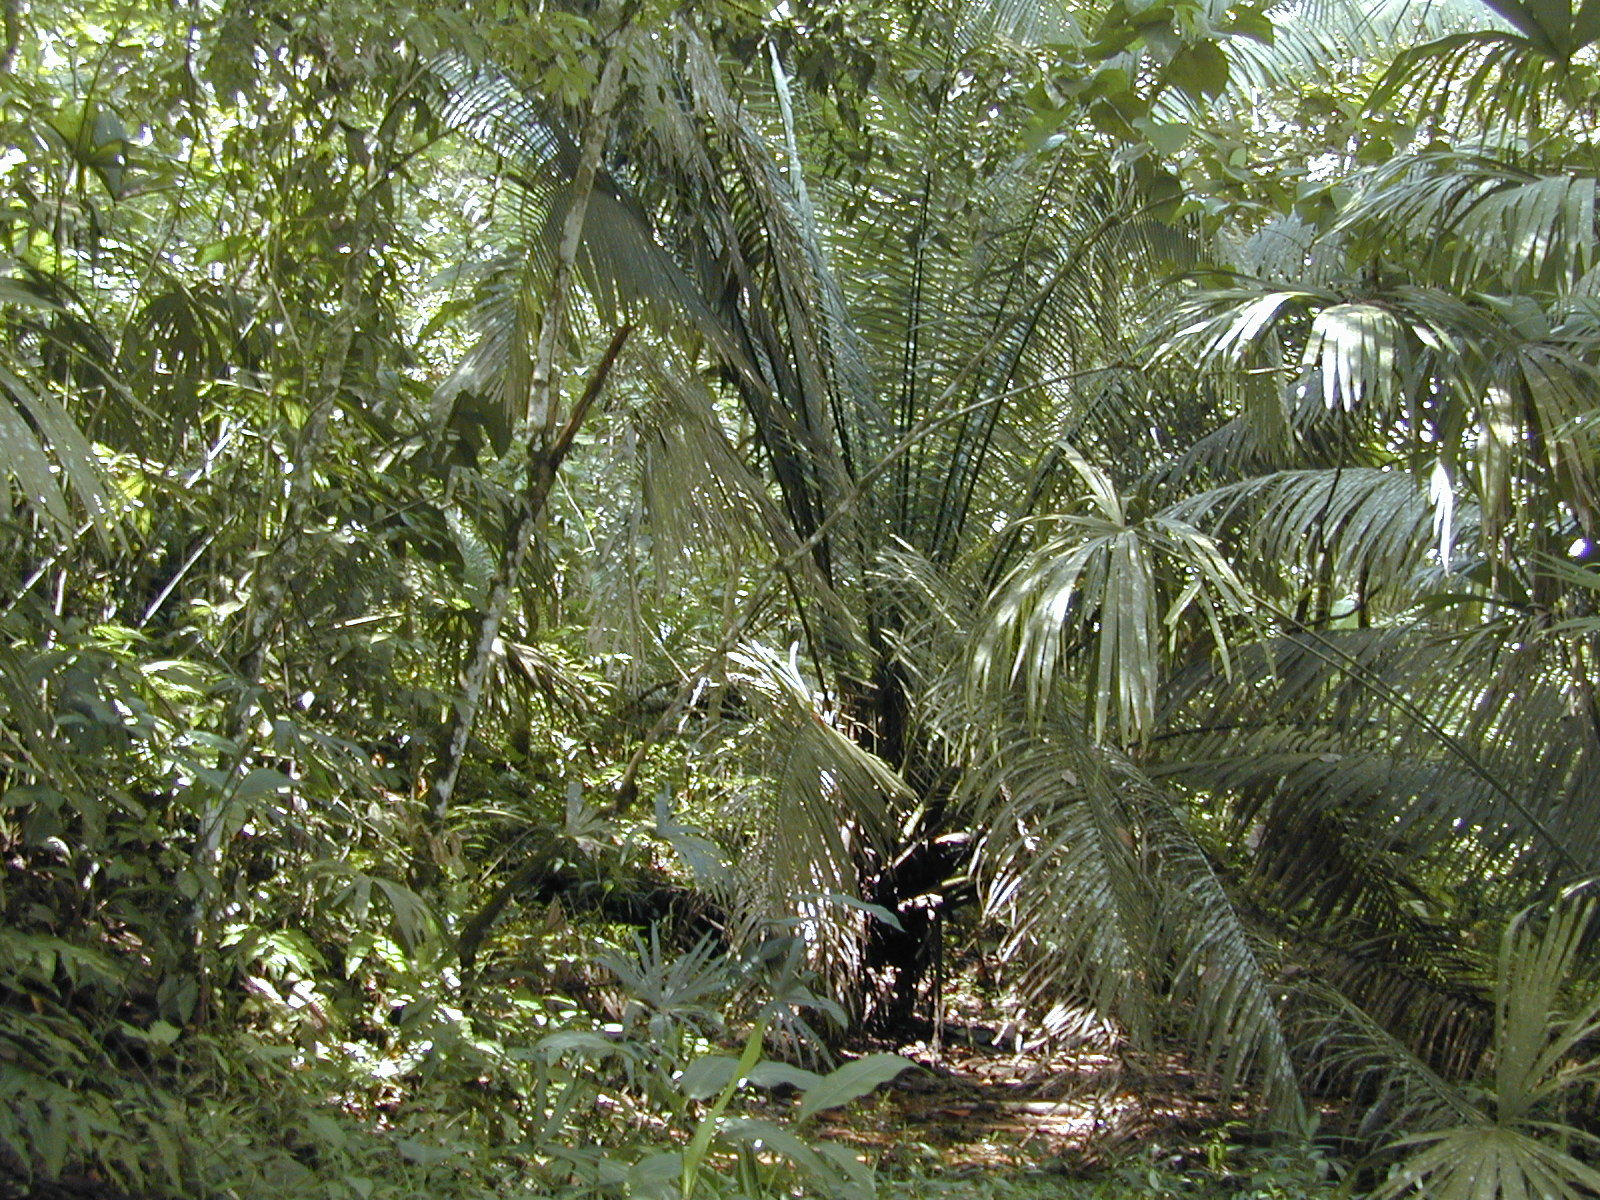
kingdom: Plantae
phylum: Tracheophyta
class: Liliopsida
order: Arecales
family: Arecaceae
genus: Elaeis
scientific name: Elaeis oleifera
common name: American oil palm
